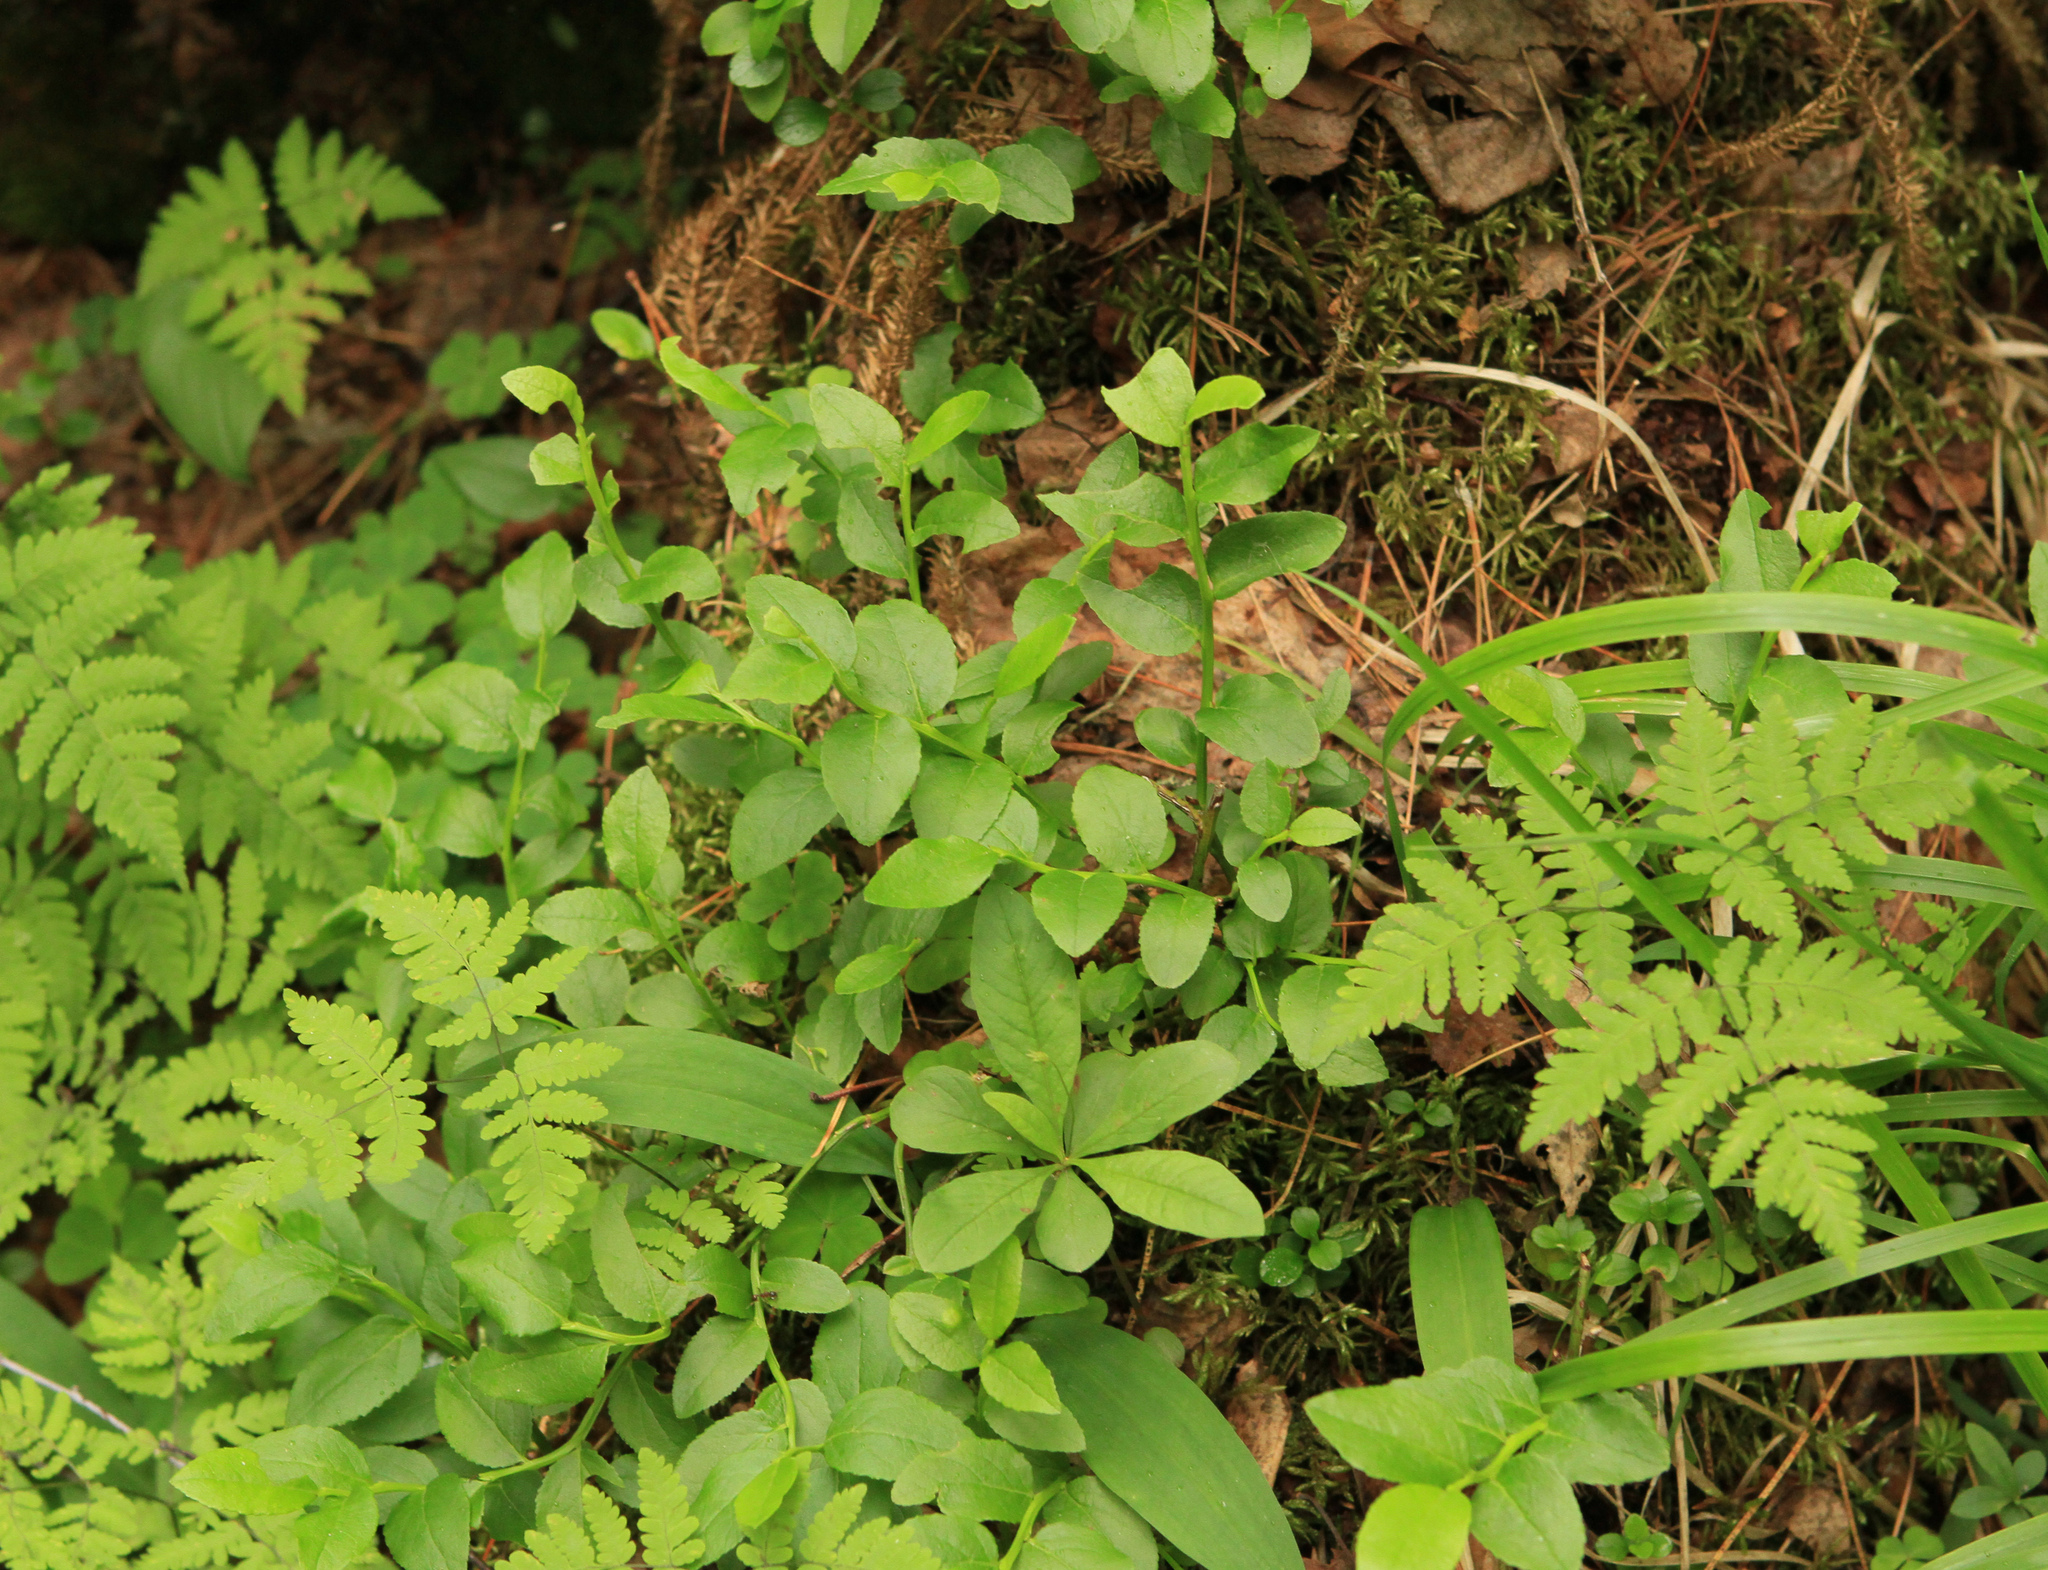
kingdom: Plantae
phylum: Tracheophyta
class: Magnoliopsida
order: Ericales
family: Ericaceae
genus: Vaccinium
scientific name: Vaccinium myrtillus
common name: Bilberry
